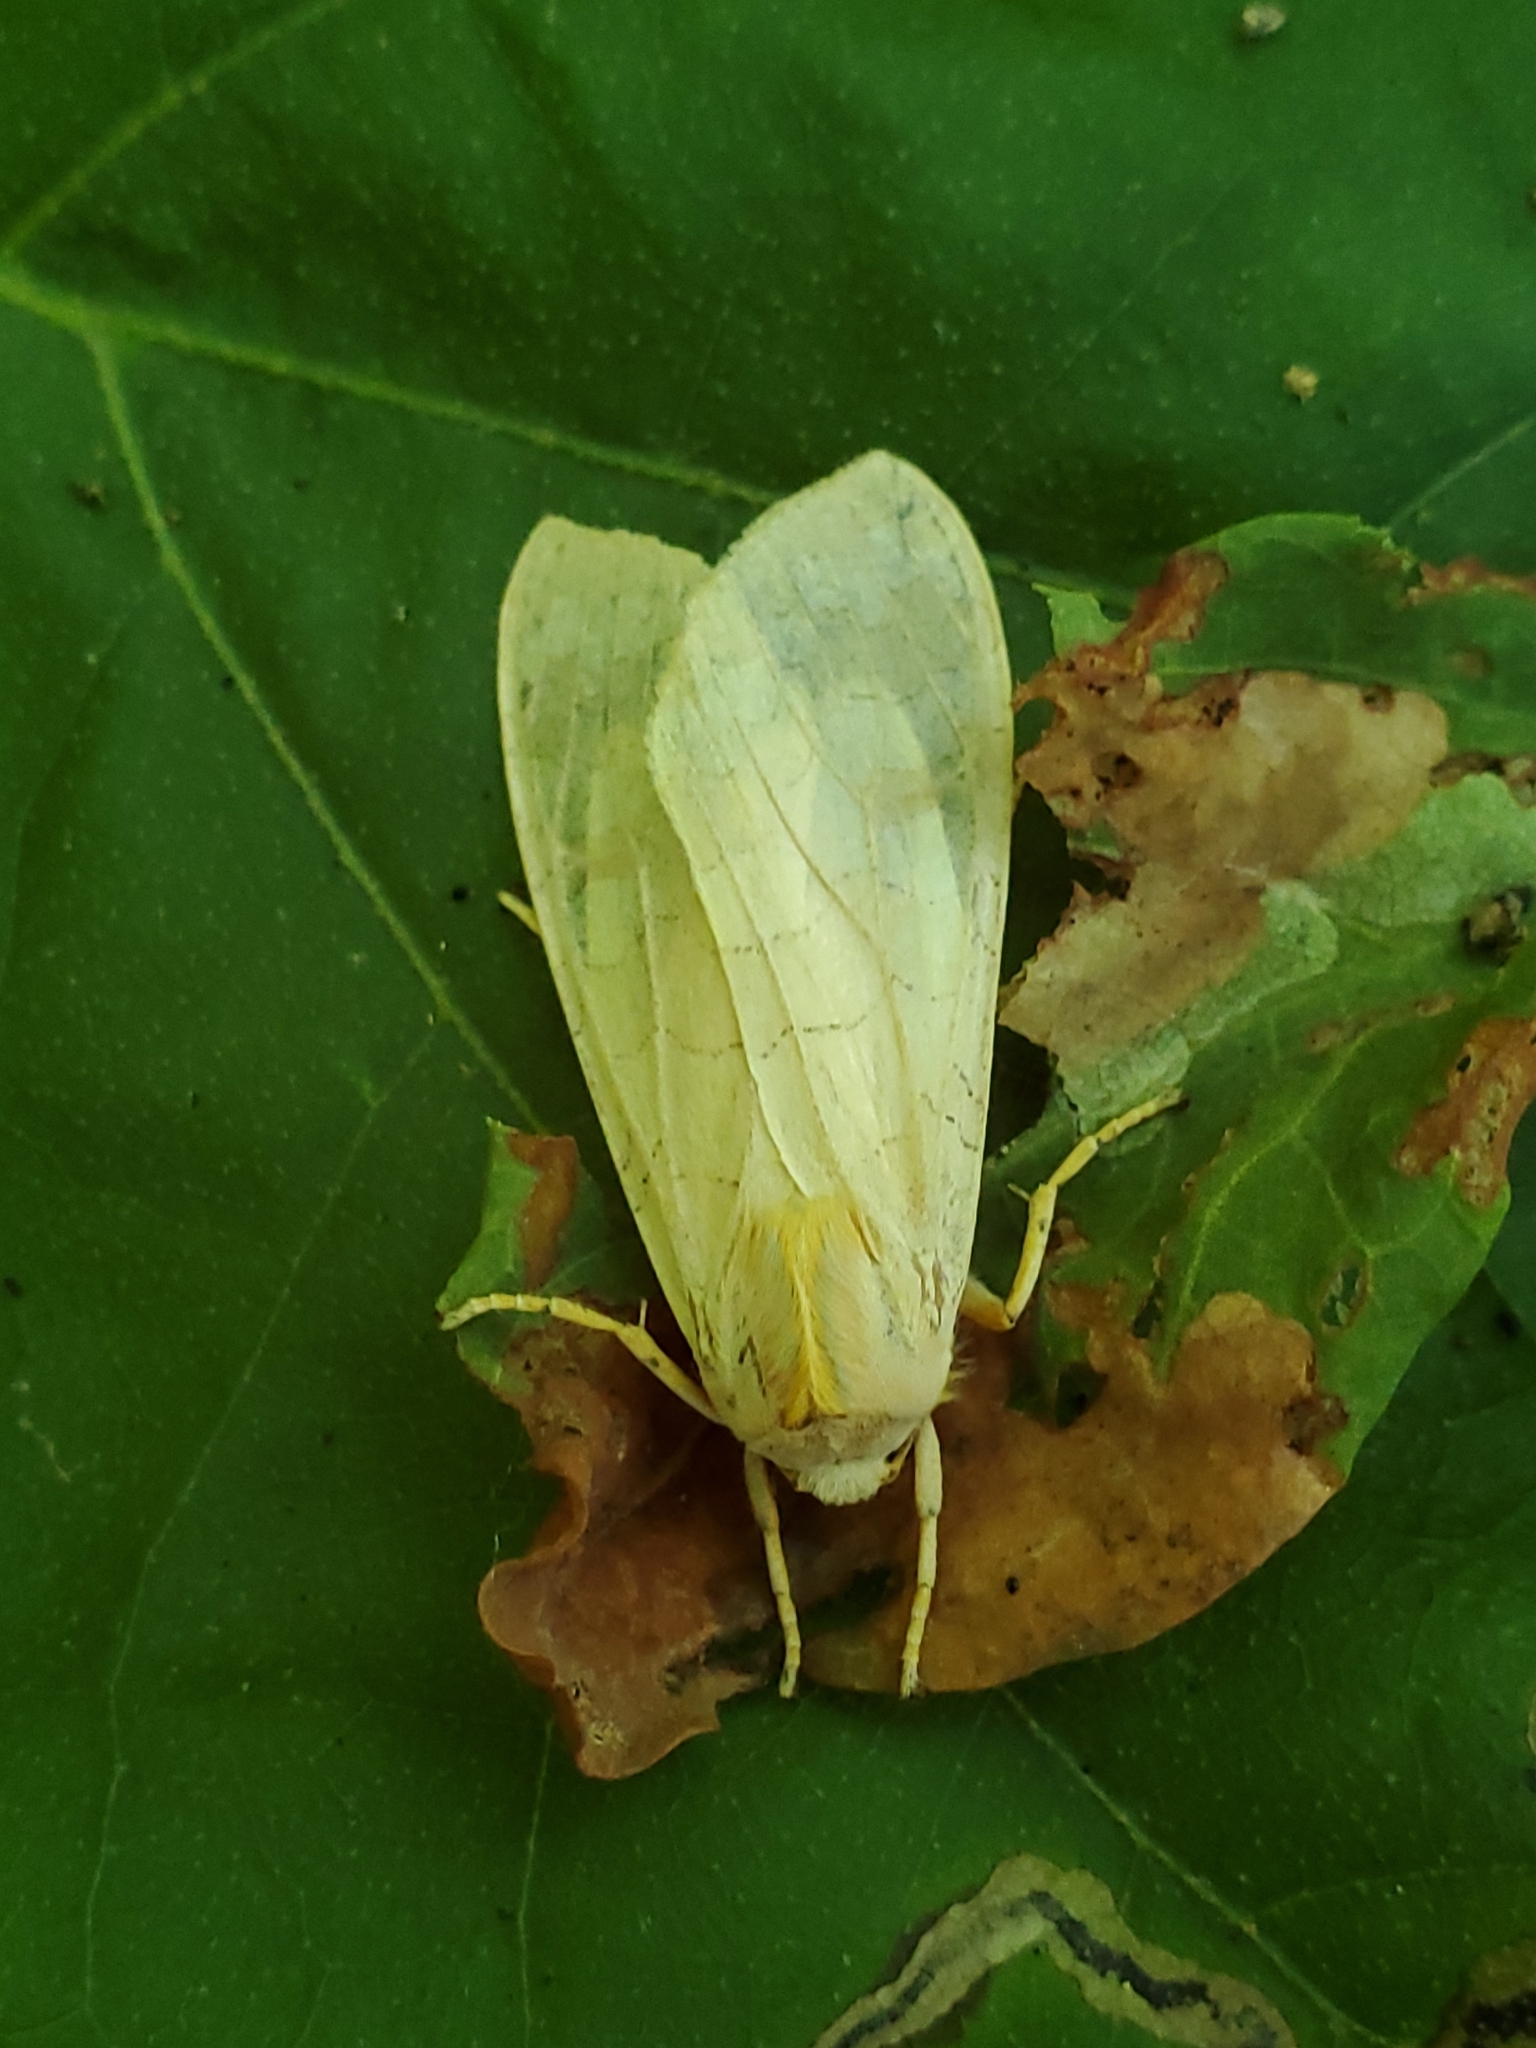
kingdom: Animalia
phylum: Arthropoda
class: Insecta
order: Lepidoptera
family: Erebidae
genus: Halysidota
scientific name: Halysidota
